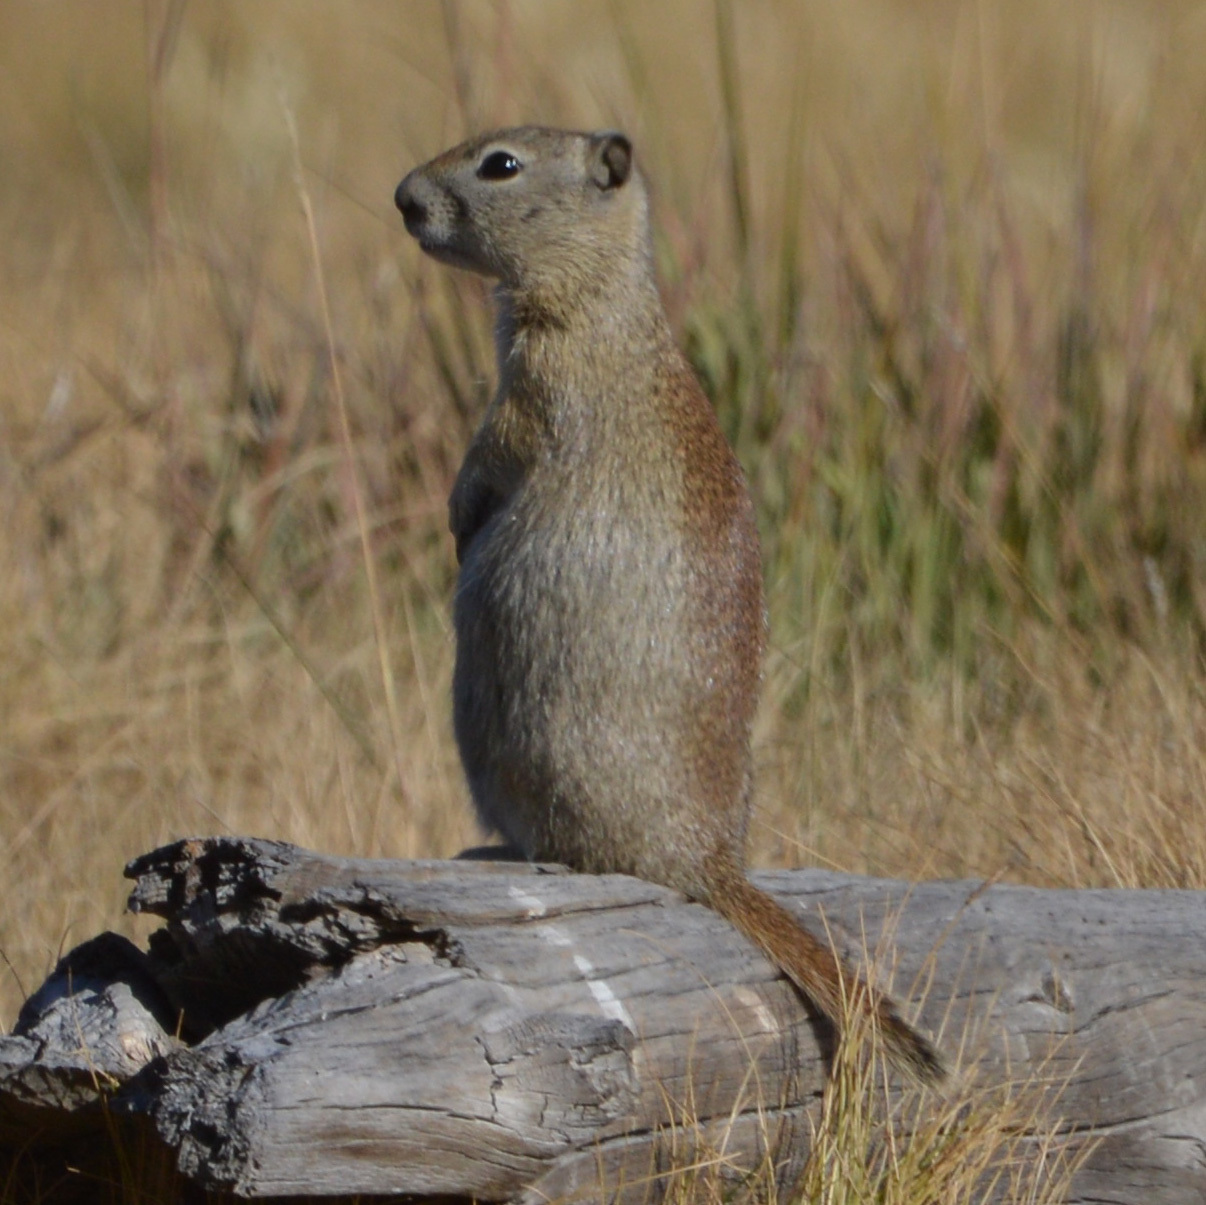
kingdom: Animalia
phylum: Chordata
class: Mammalia
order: Rodentia
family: Sciuridae
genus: Urocitellus
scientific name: Urocitellus beldingi
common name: Belding's ground squirrel
